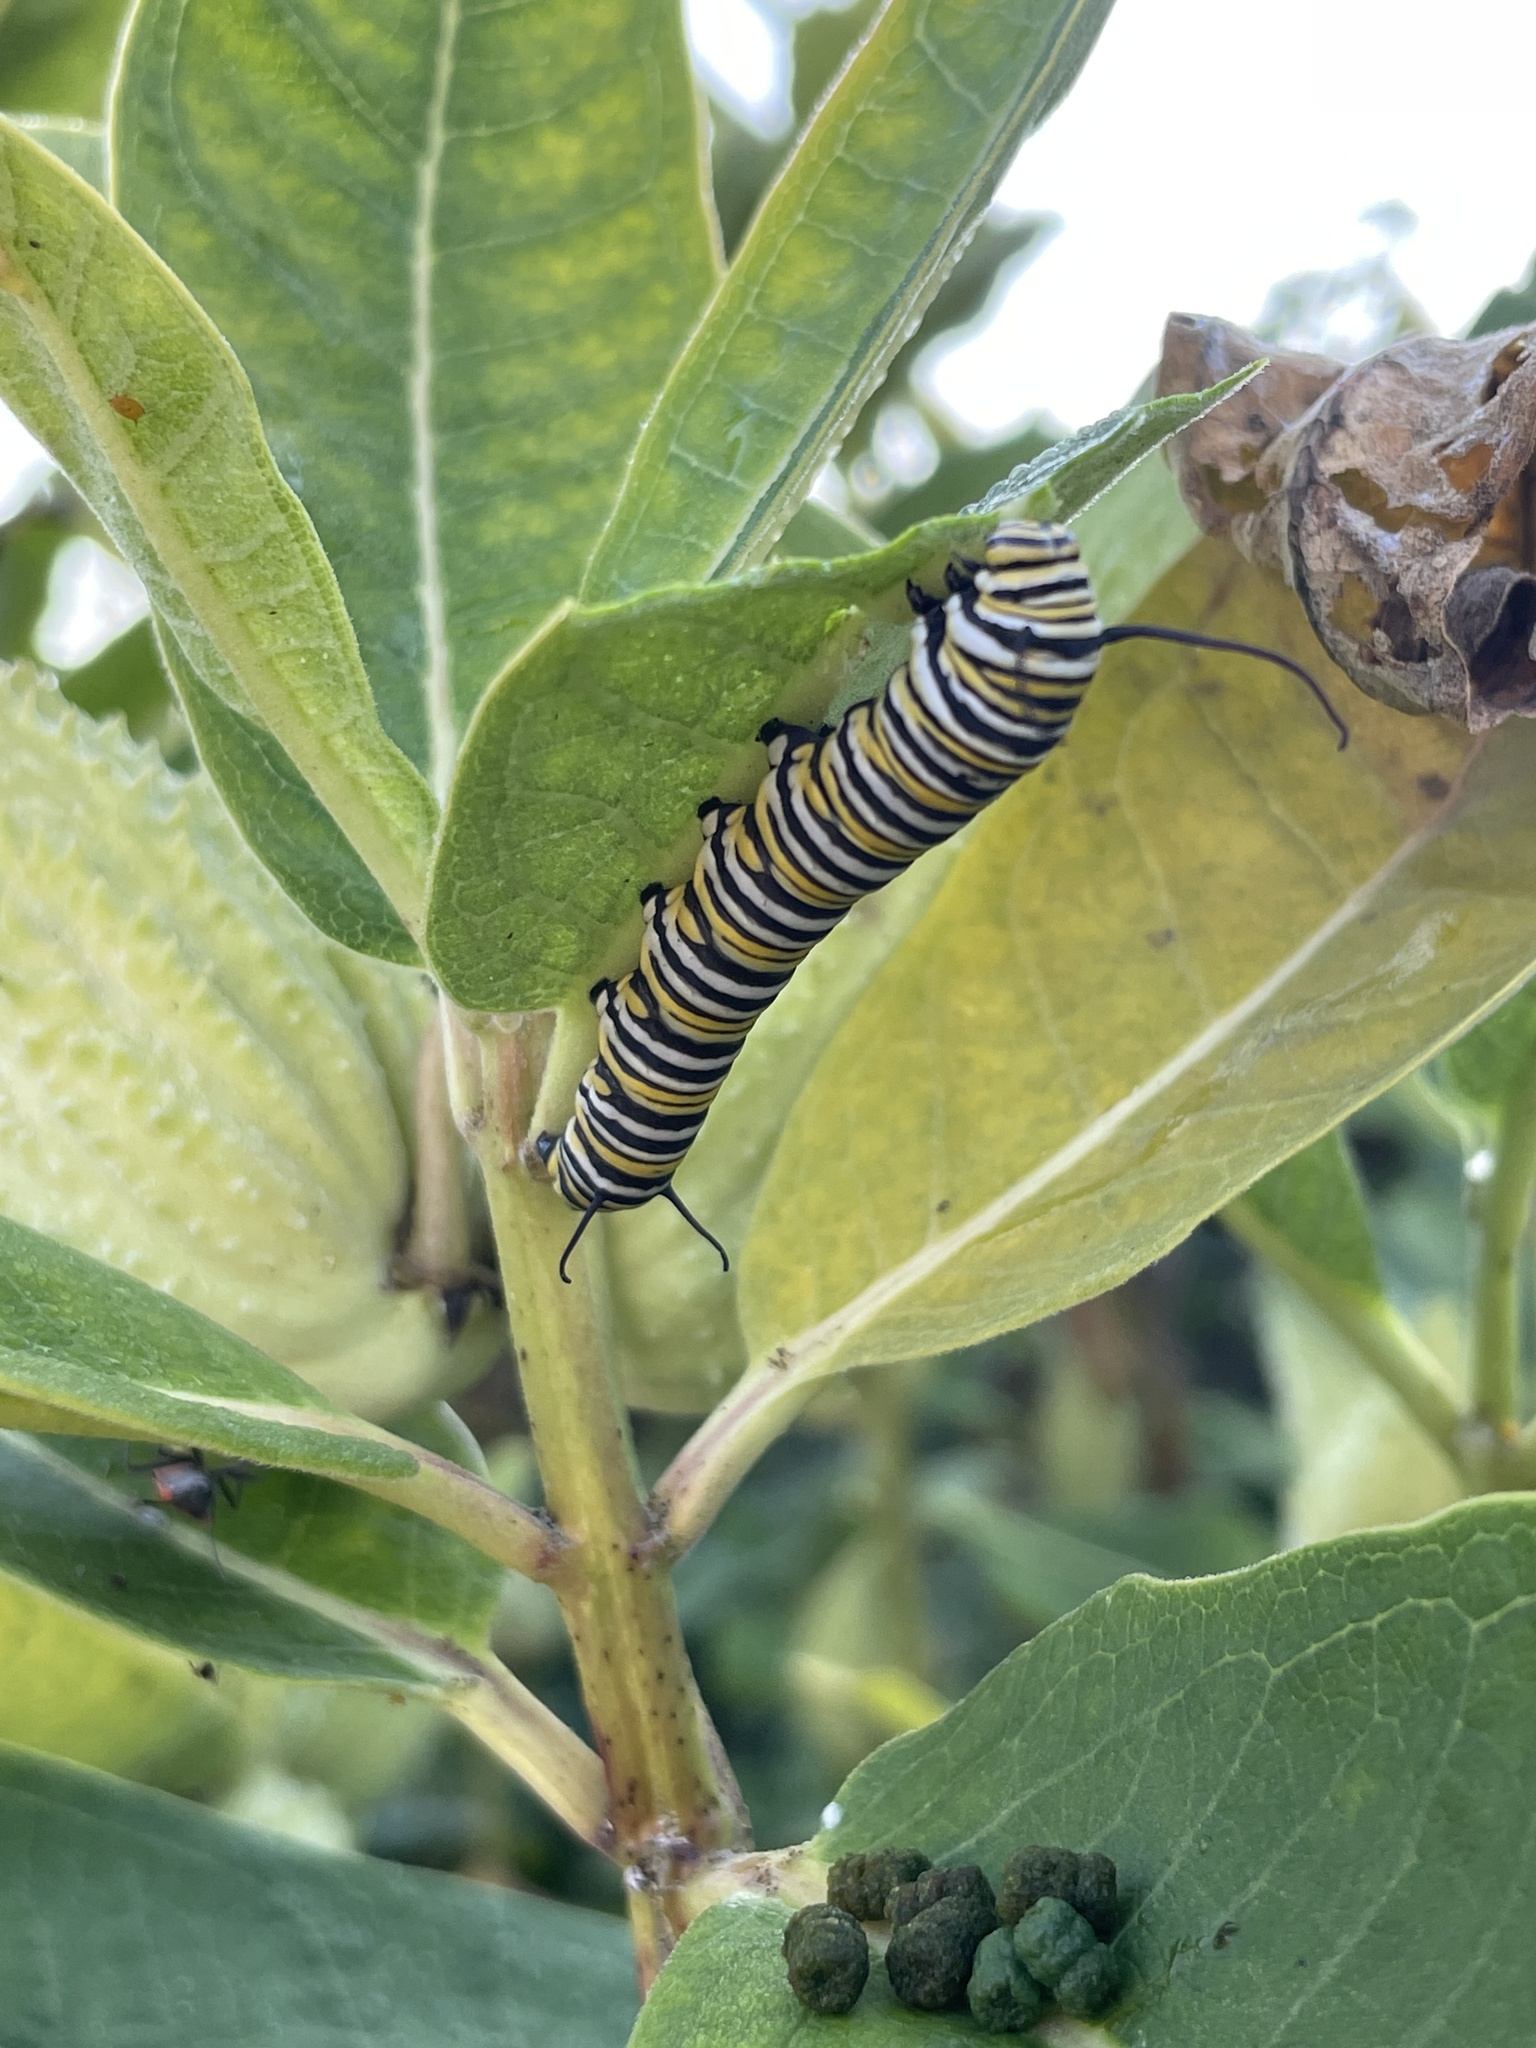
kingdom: Animalia
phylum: Arthropoda
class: Insecta
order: Lepidoptera
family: Nymphalidae
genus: Danaus
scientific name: Danaus plexippus
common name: Monarch
